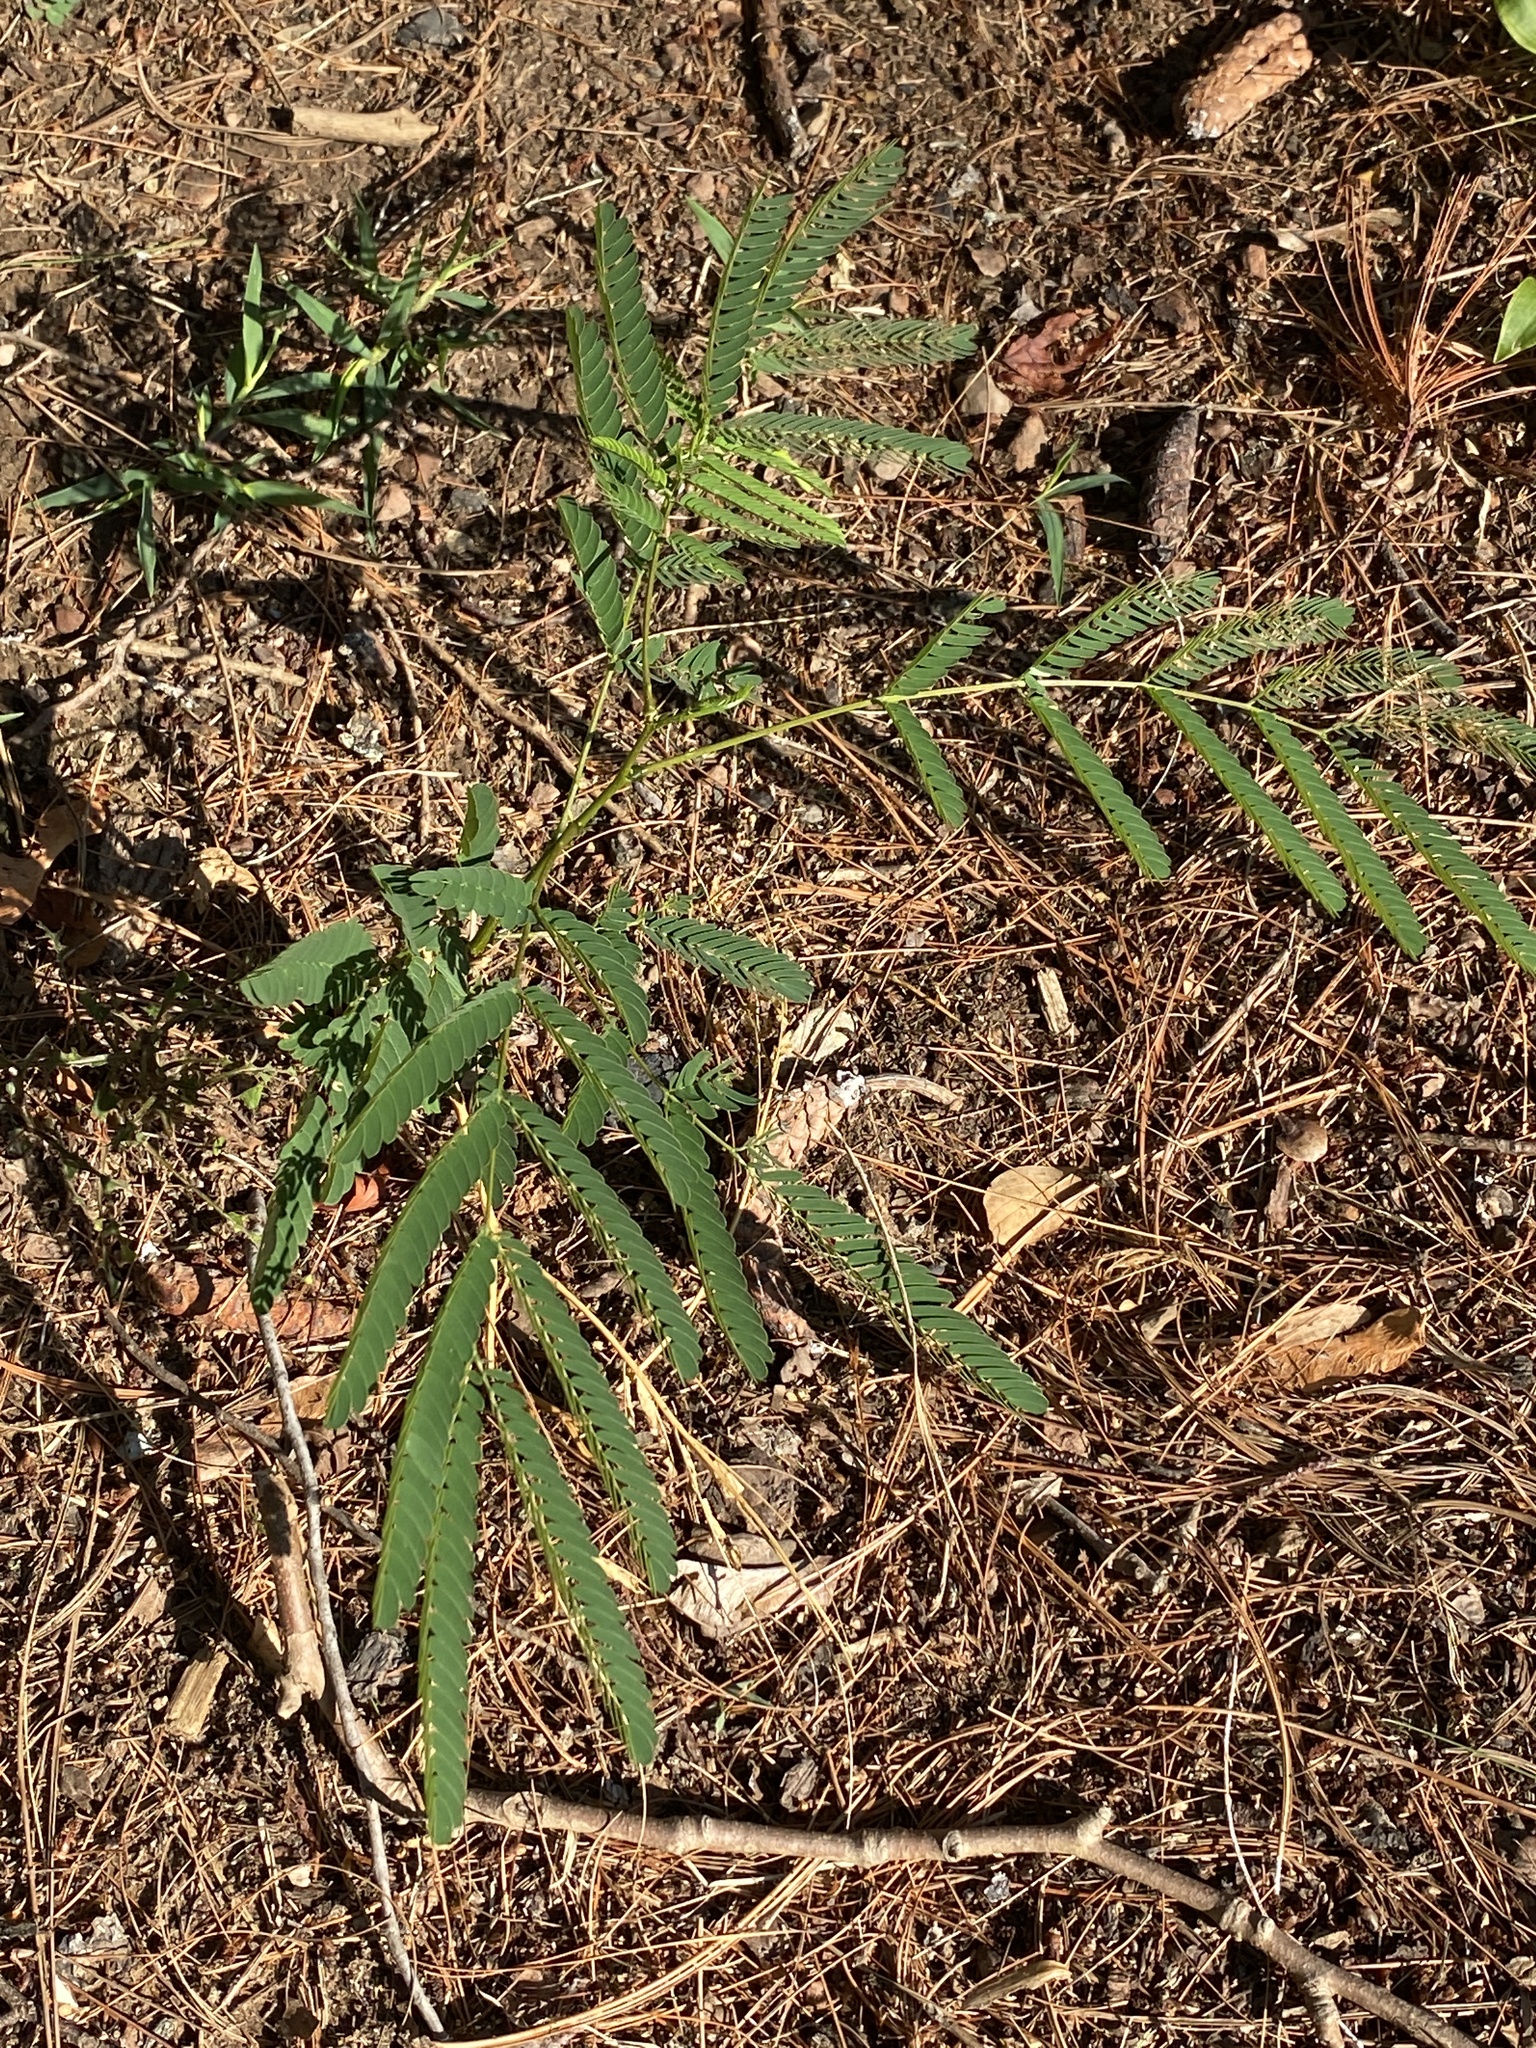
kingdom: Plantae
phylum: Tracheophyta
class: Magnoliopsida
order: Fabales
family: Fabaceae
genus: Albizia
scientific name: Albizia julibrissin
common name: Silktree
